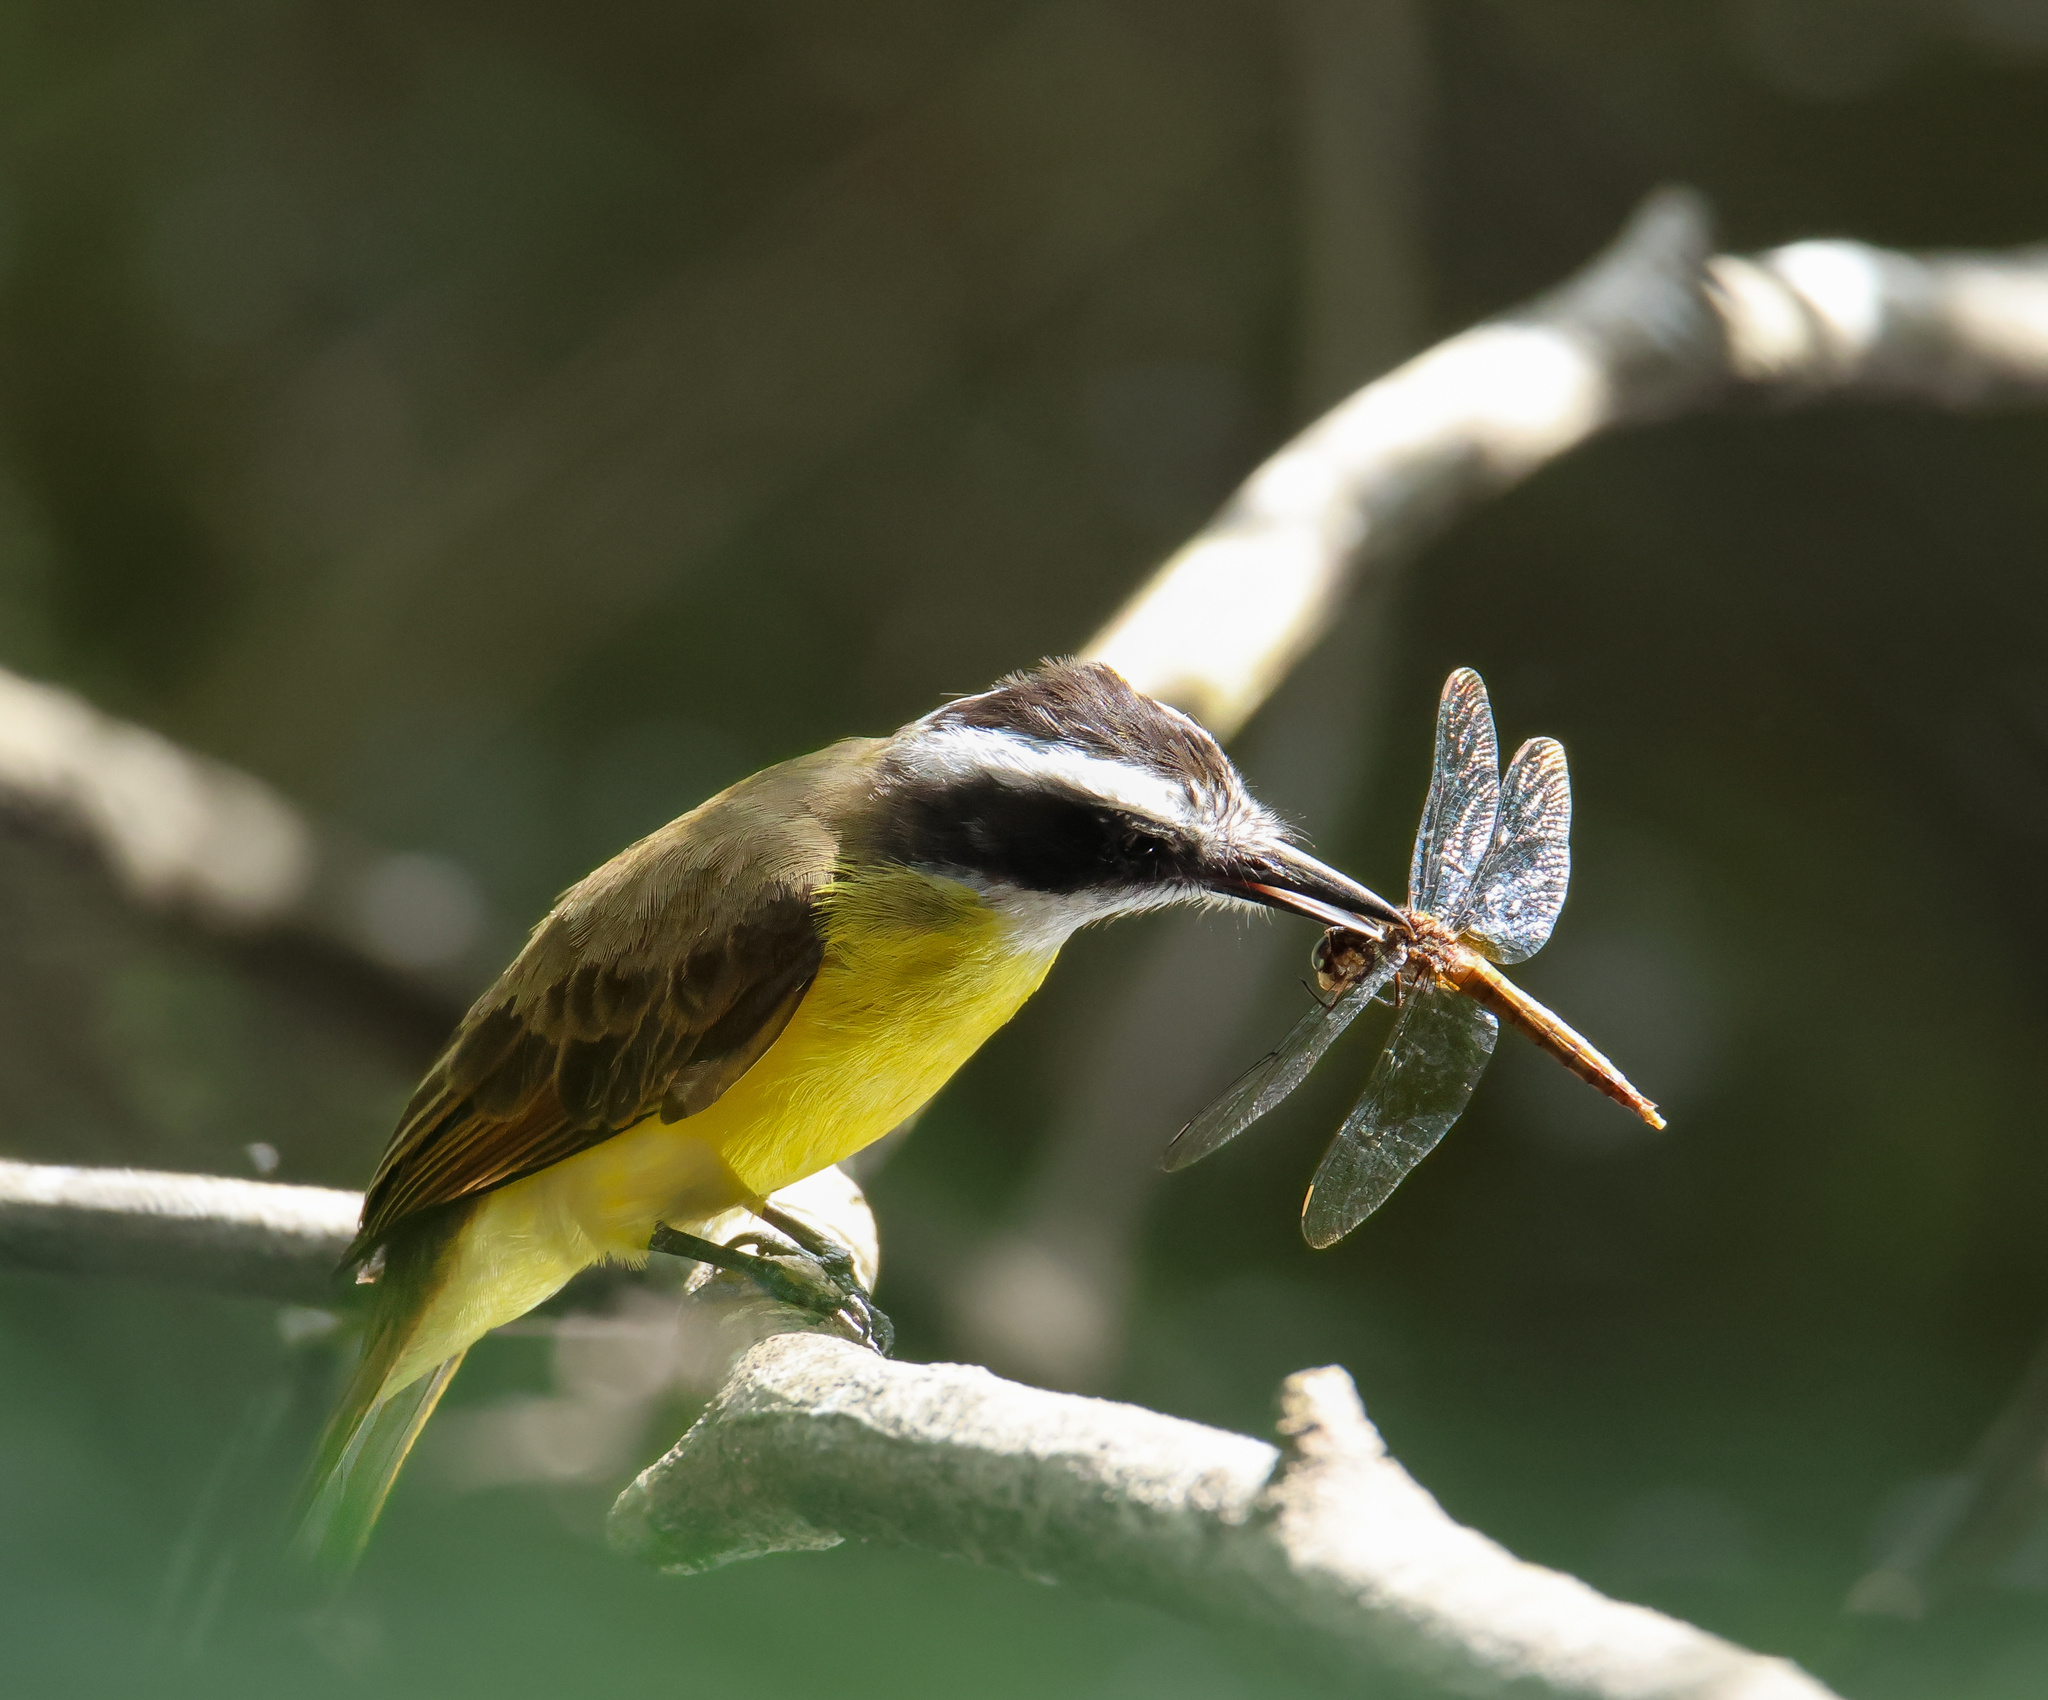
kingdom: Animalia
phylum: Chordata
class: Aves
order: Passeriformes
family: Tyrannidae
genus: Pitangus
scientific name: Pitangus lictor
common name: Lesser kiskadee
